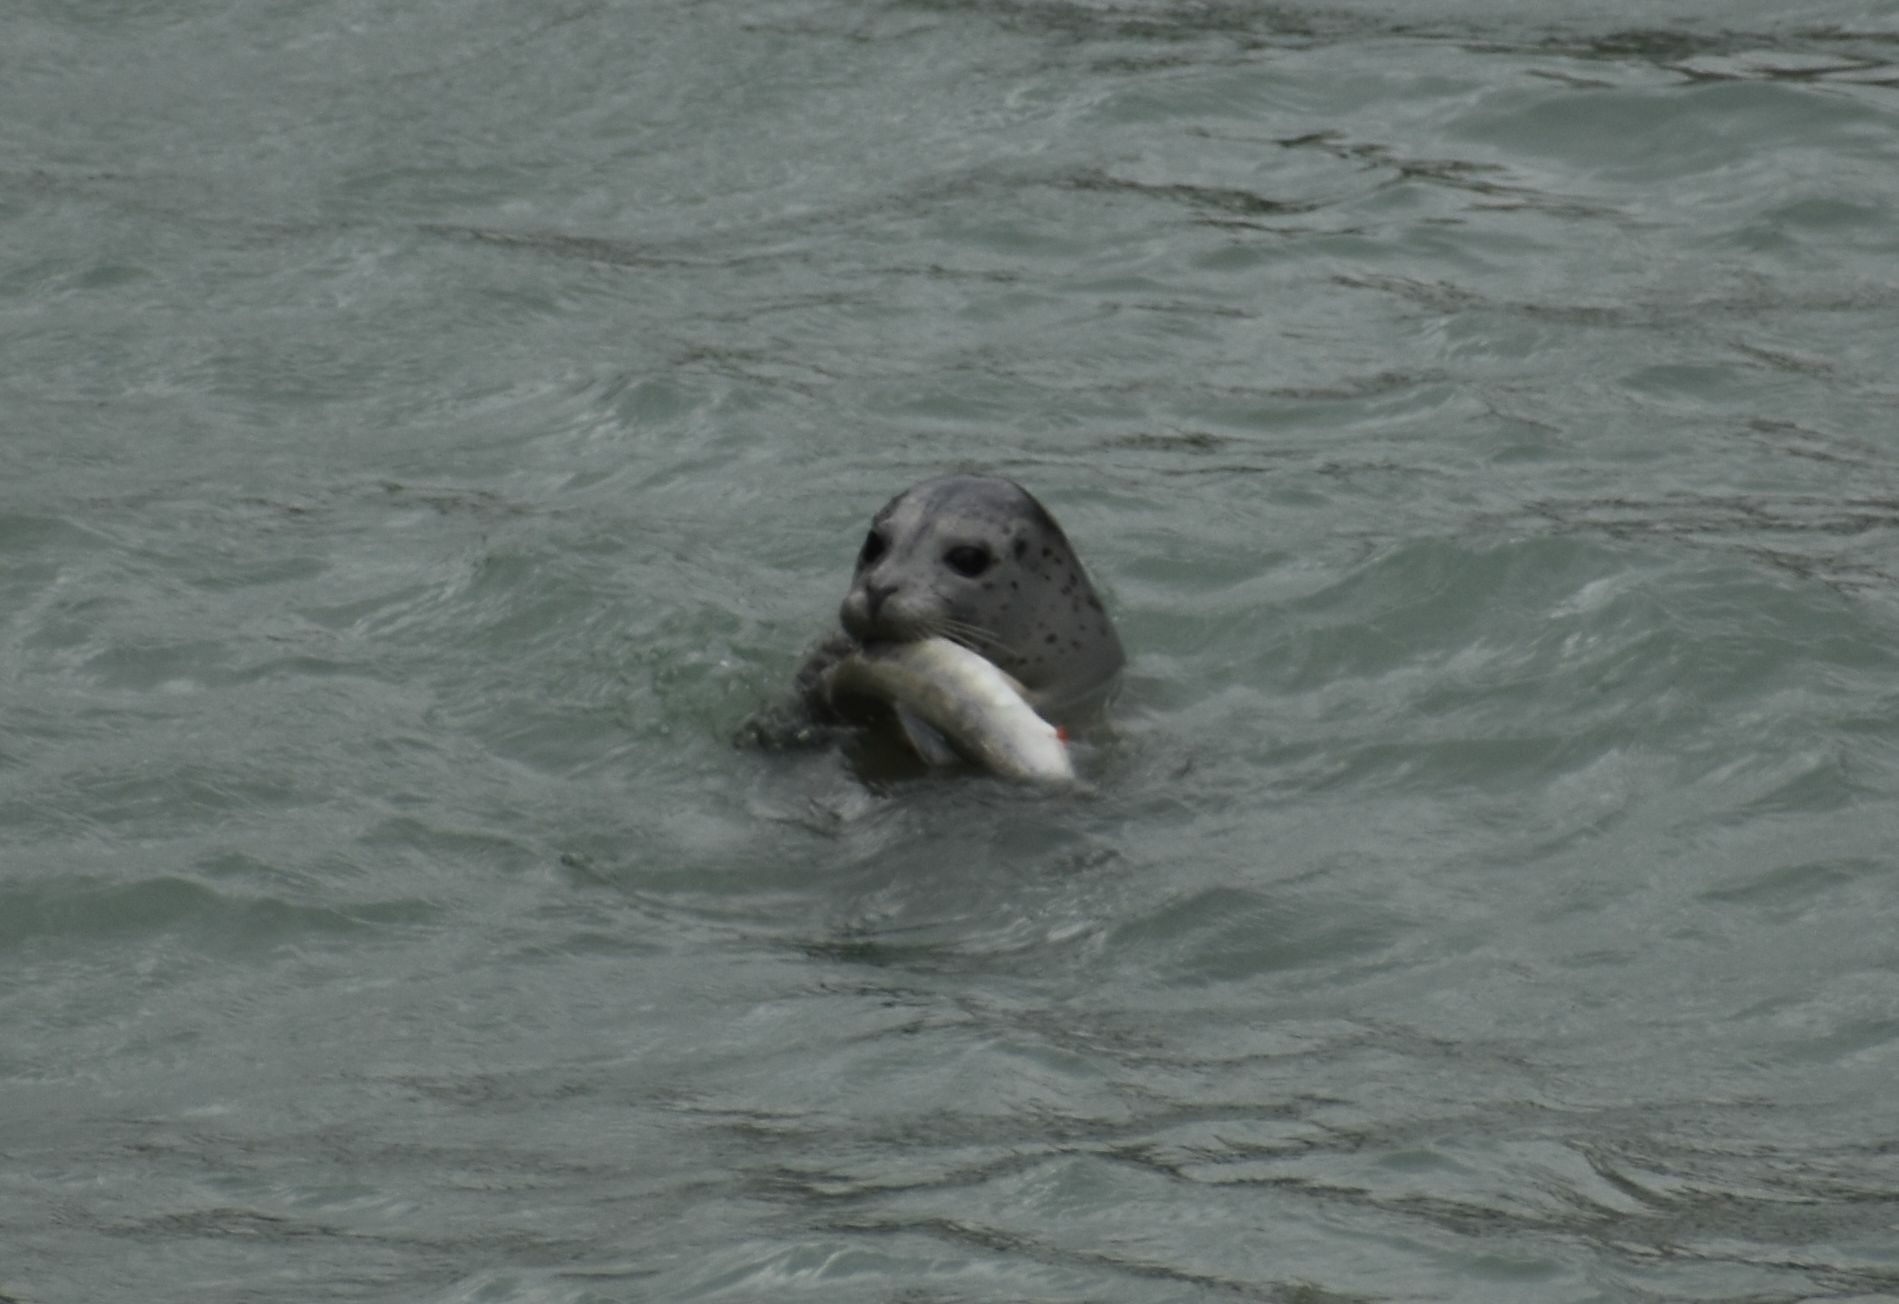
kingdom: Animalia
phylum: Chordata
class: Mammalia
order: Carnivora
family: Phocidae
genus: Phoca
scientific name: Phoca vitulina
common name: Harbor seal
